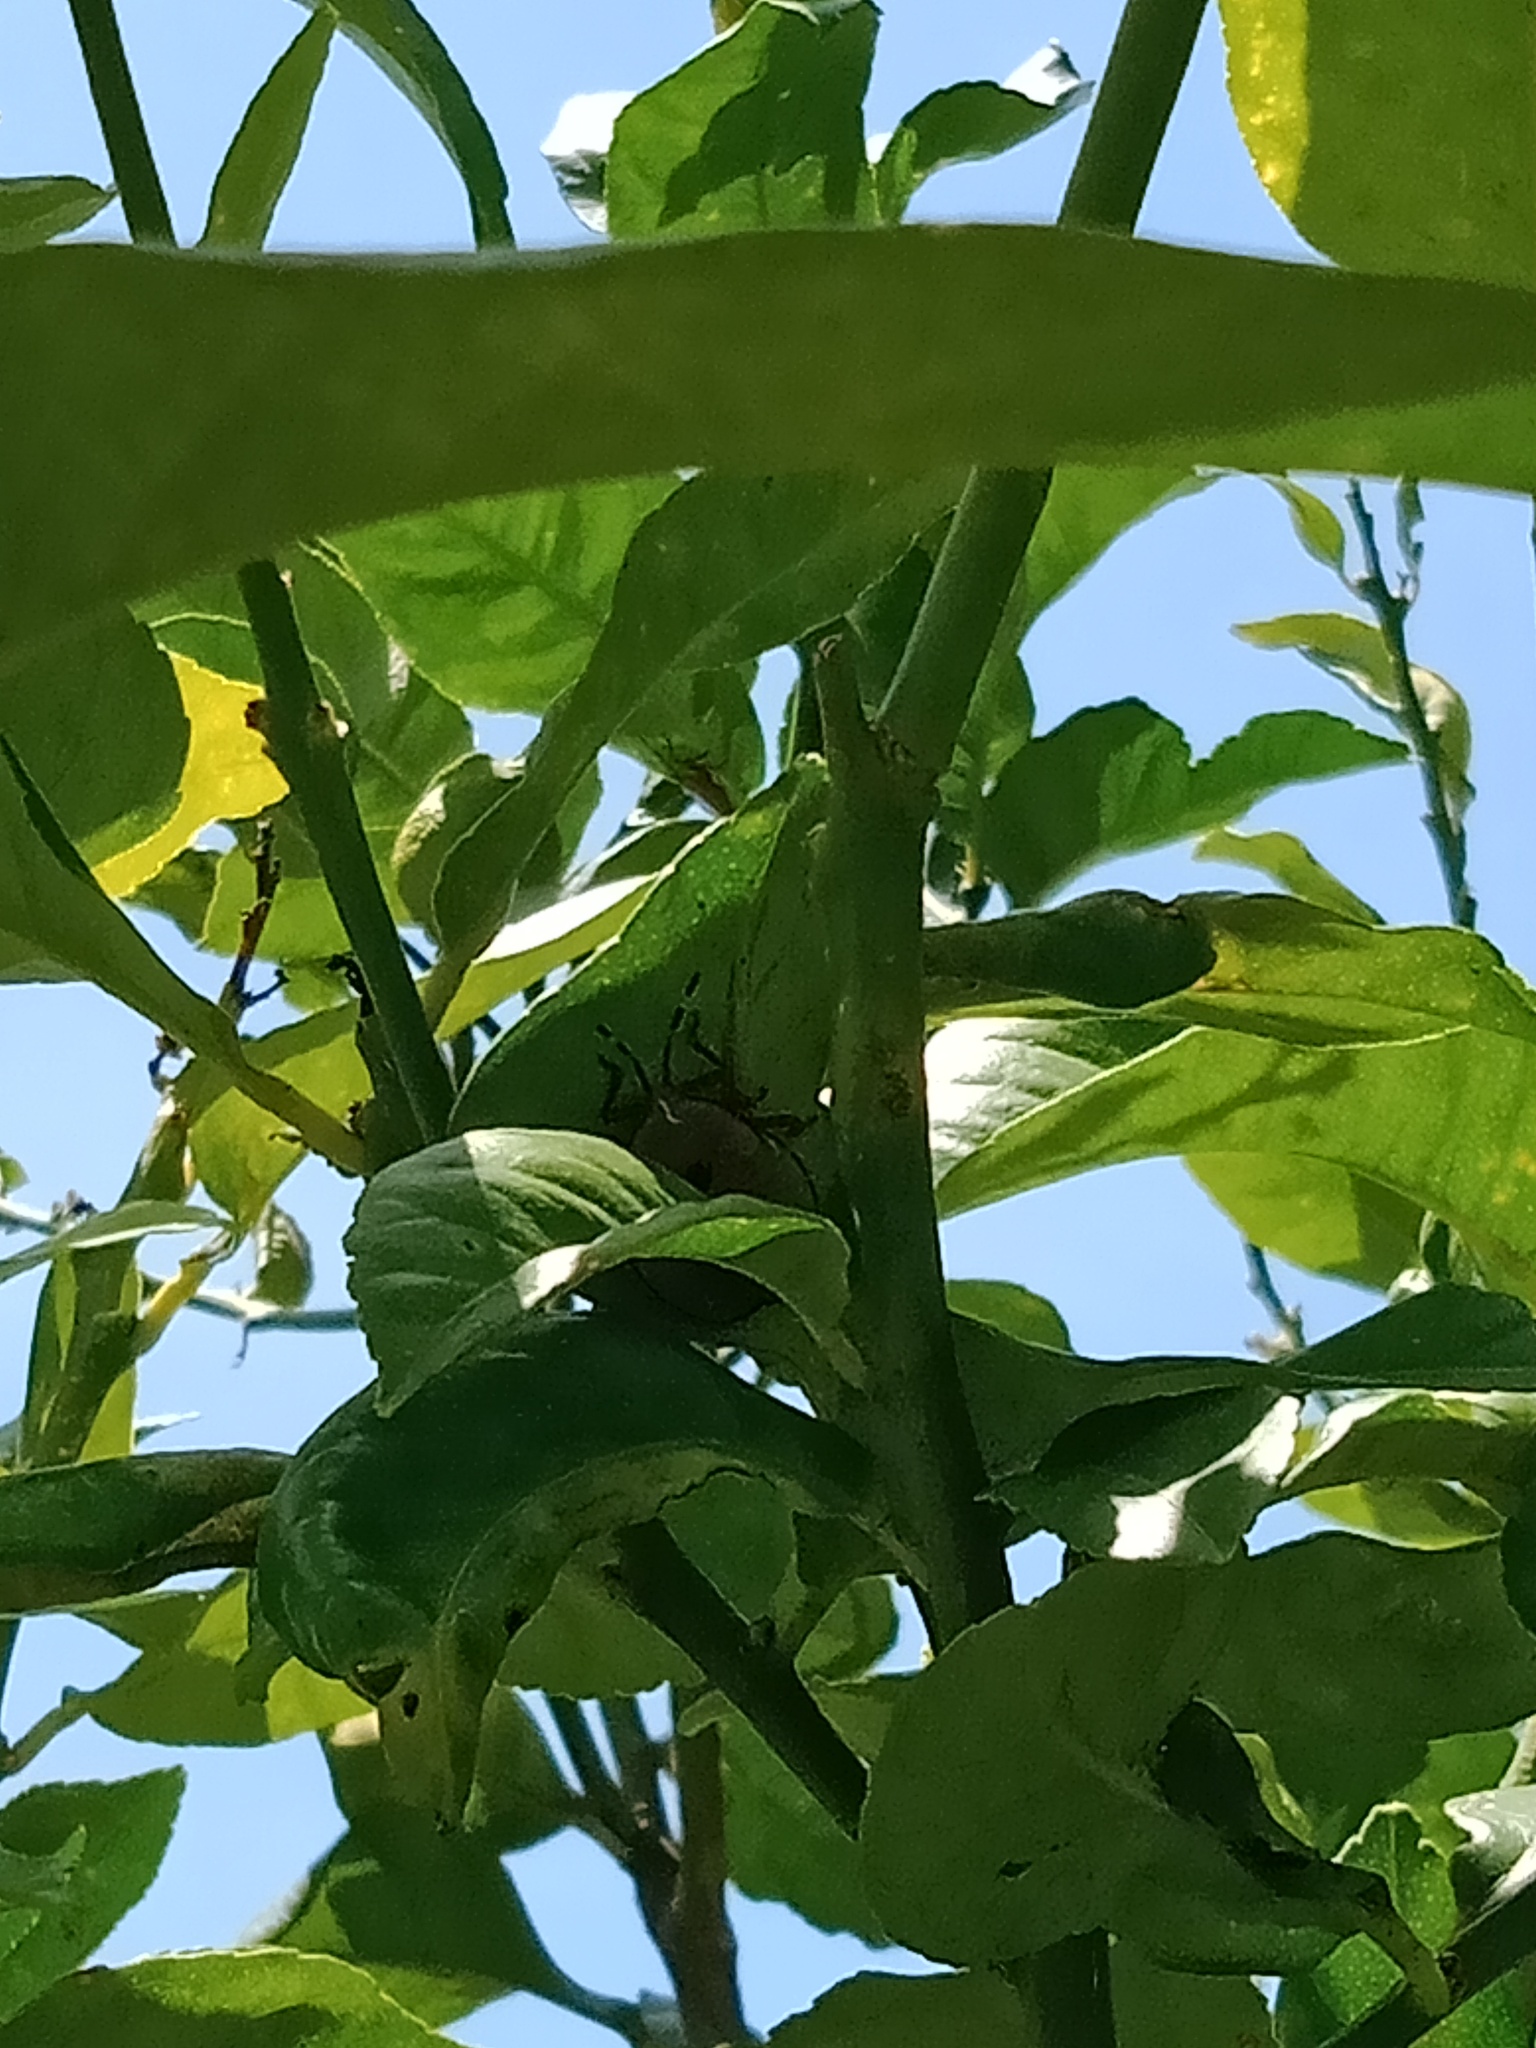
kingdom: Animalia
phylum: Arthropoda
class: Insecta
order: Hemiptera
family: Tessaratomidae
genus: Musgraveia
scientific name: Musgraveia sulciventris
